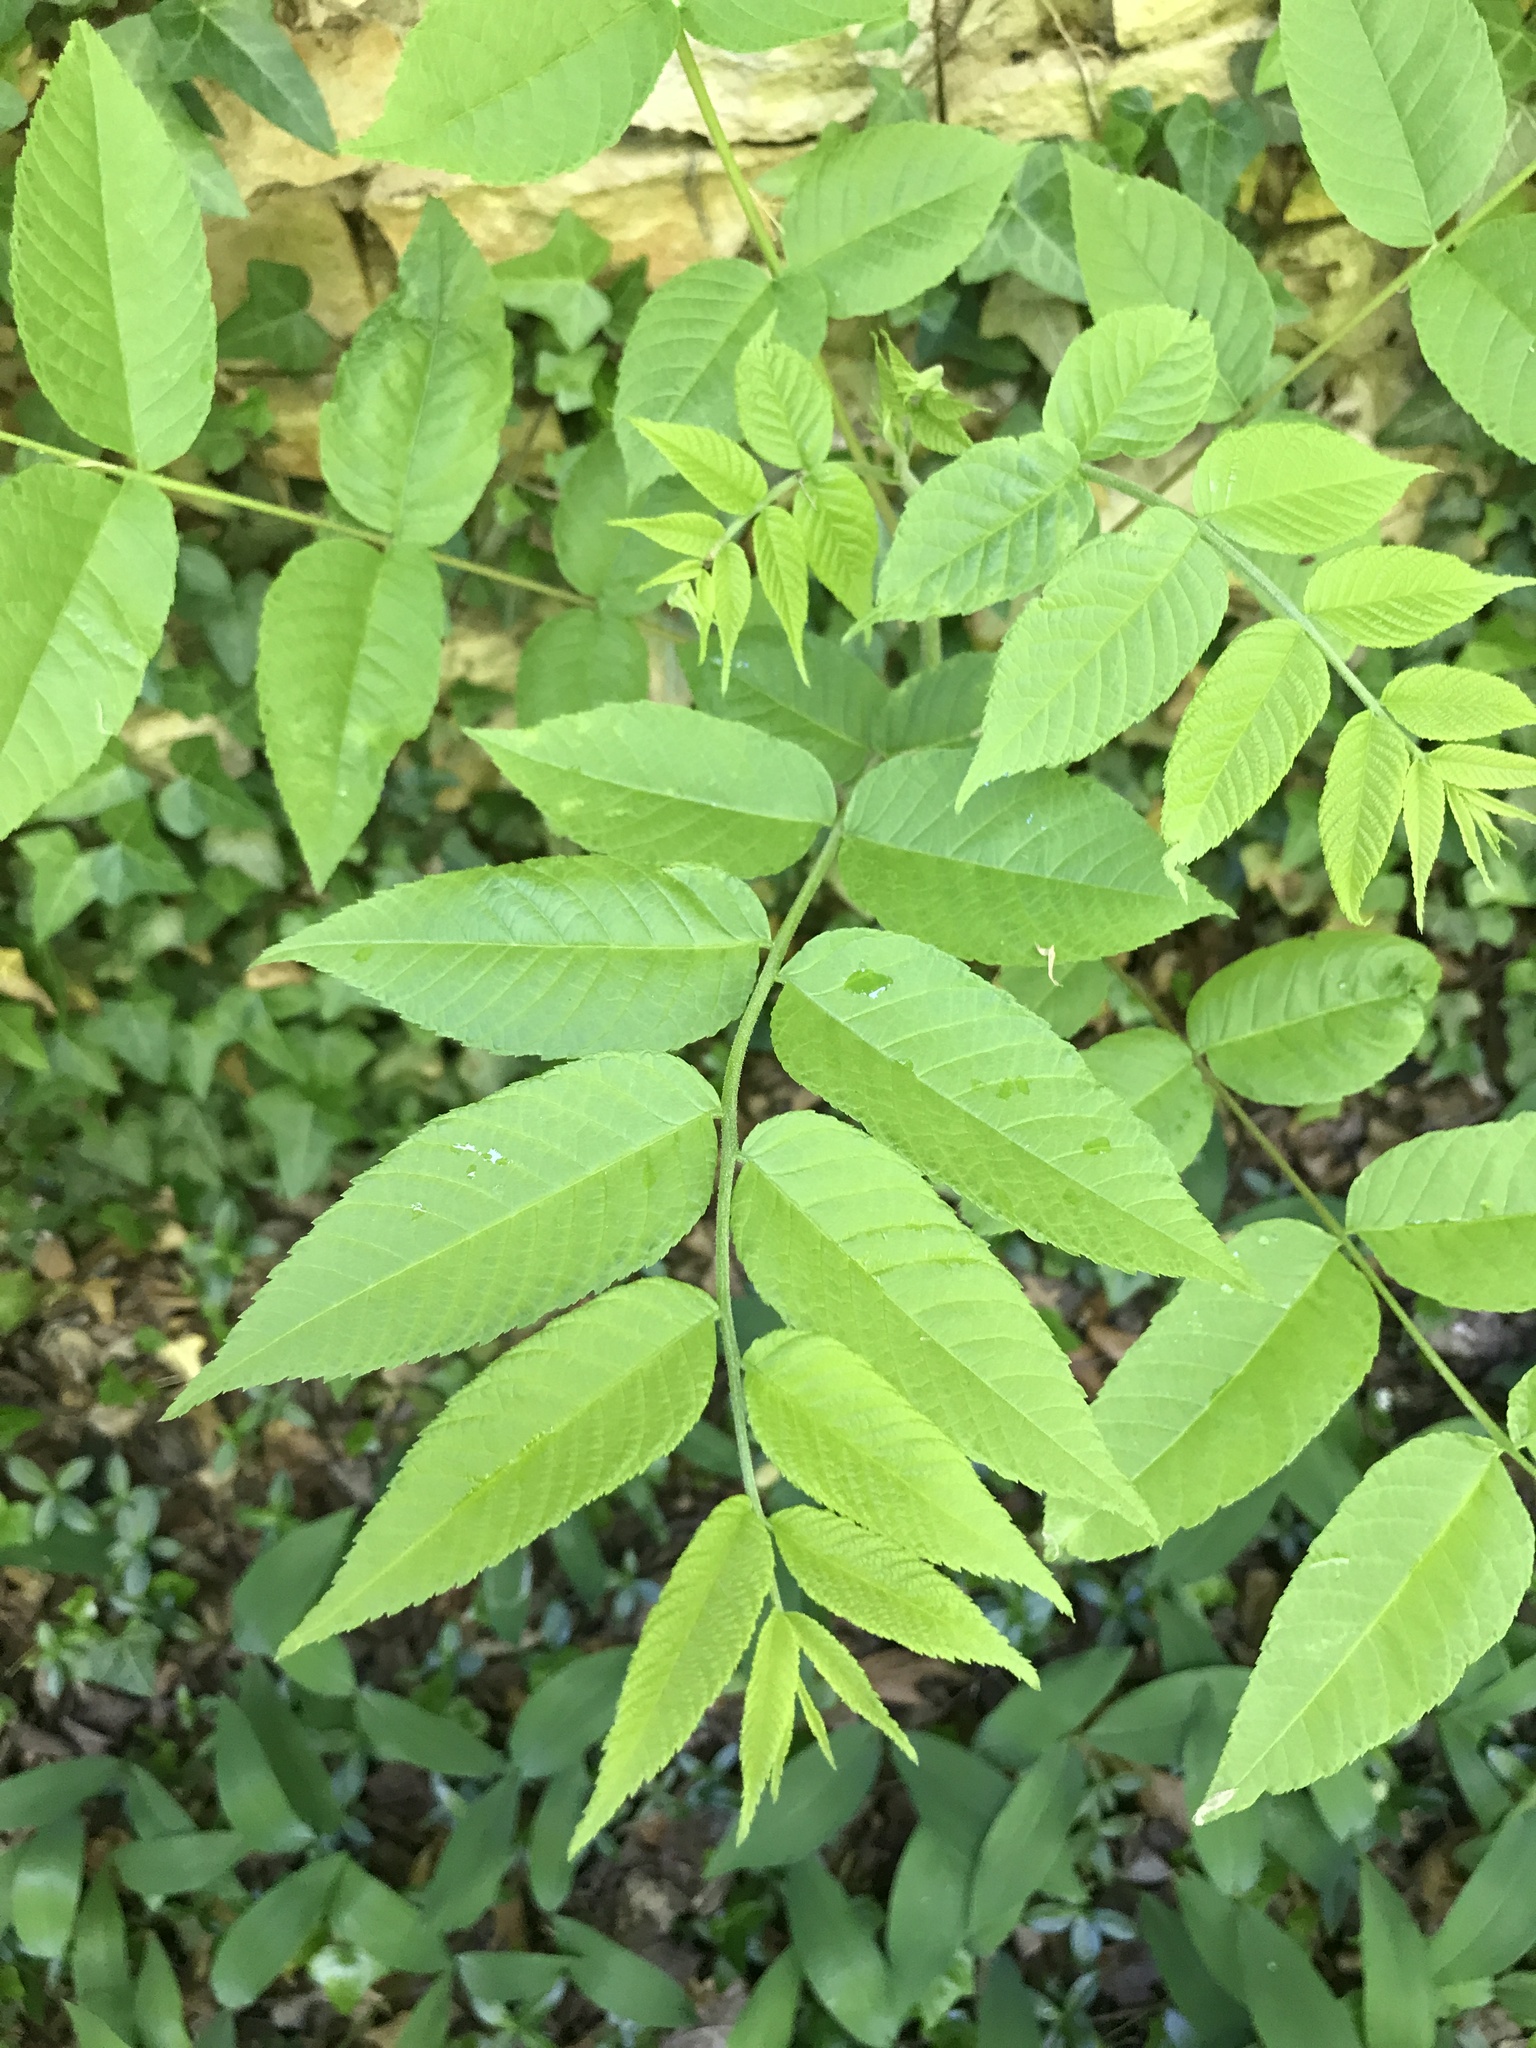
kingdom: Plantae
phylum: Tracheophyta
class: Magnoliopsida
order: Fagales
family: Juglandaceae
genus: Juglans
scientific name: Juglans nigra
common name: Black walnut
